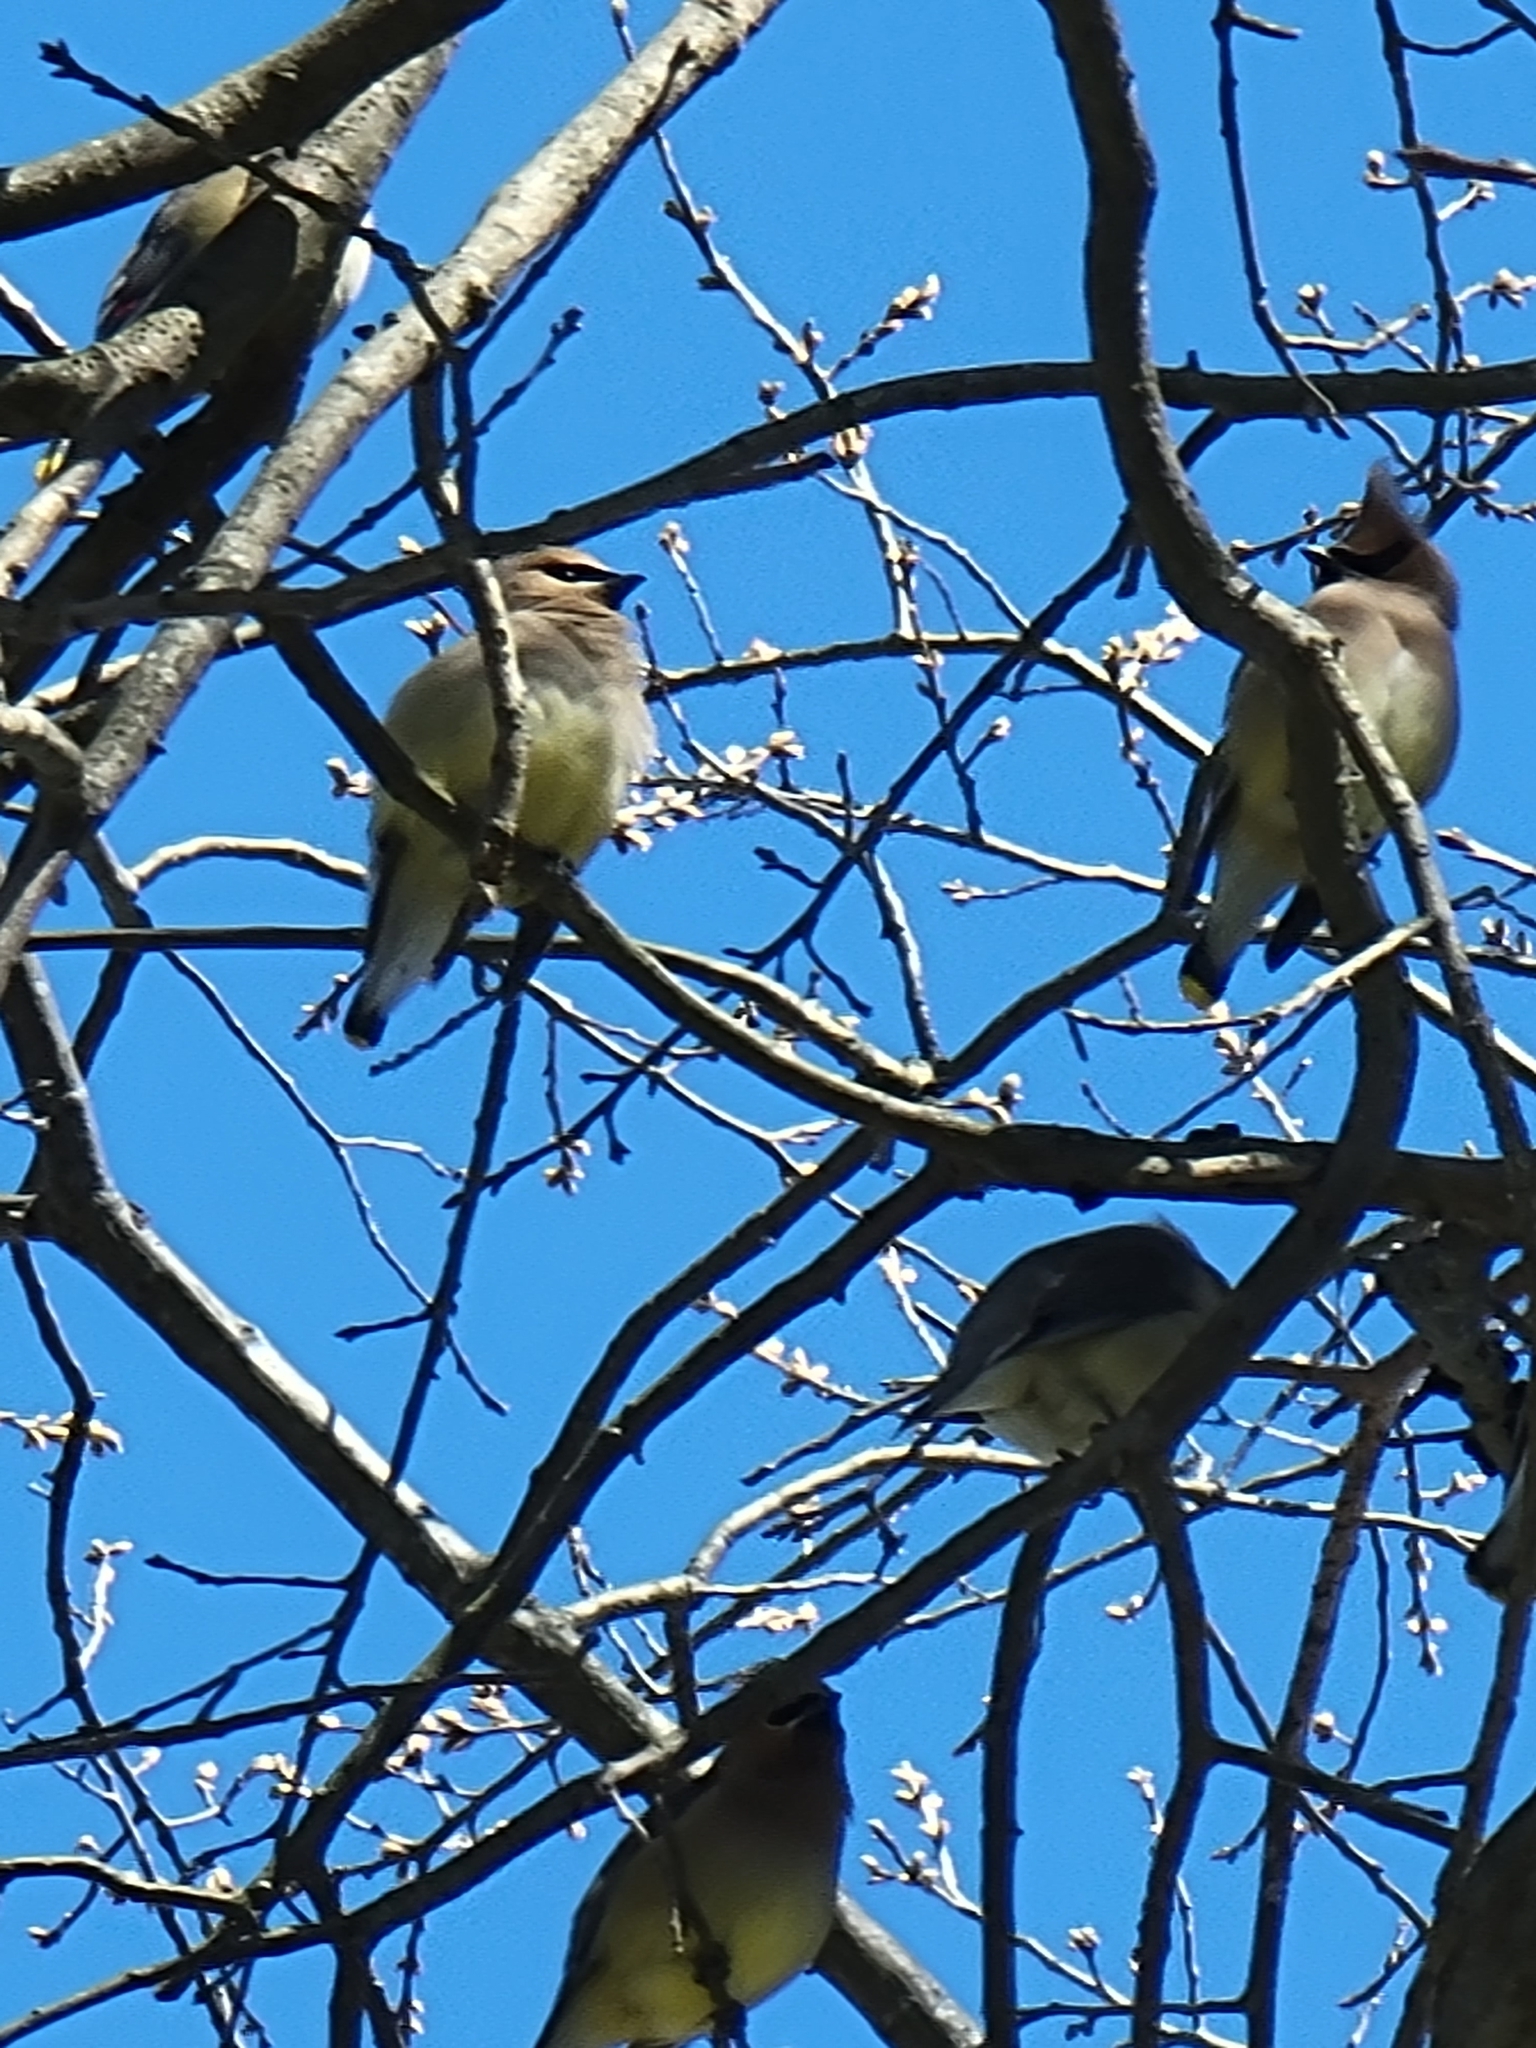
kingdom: Animalia
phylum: Chordata
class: Aves
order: Passeriformes
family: Bombycillidae
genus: Bombycilla
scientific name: Bombycilla cedrorum
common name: Cedar waxwing
